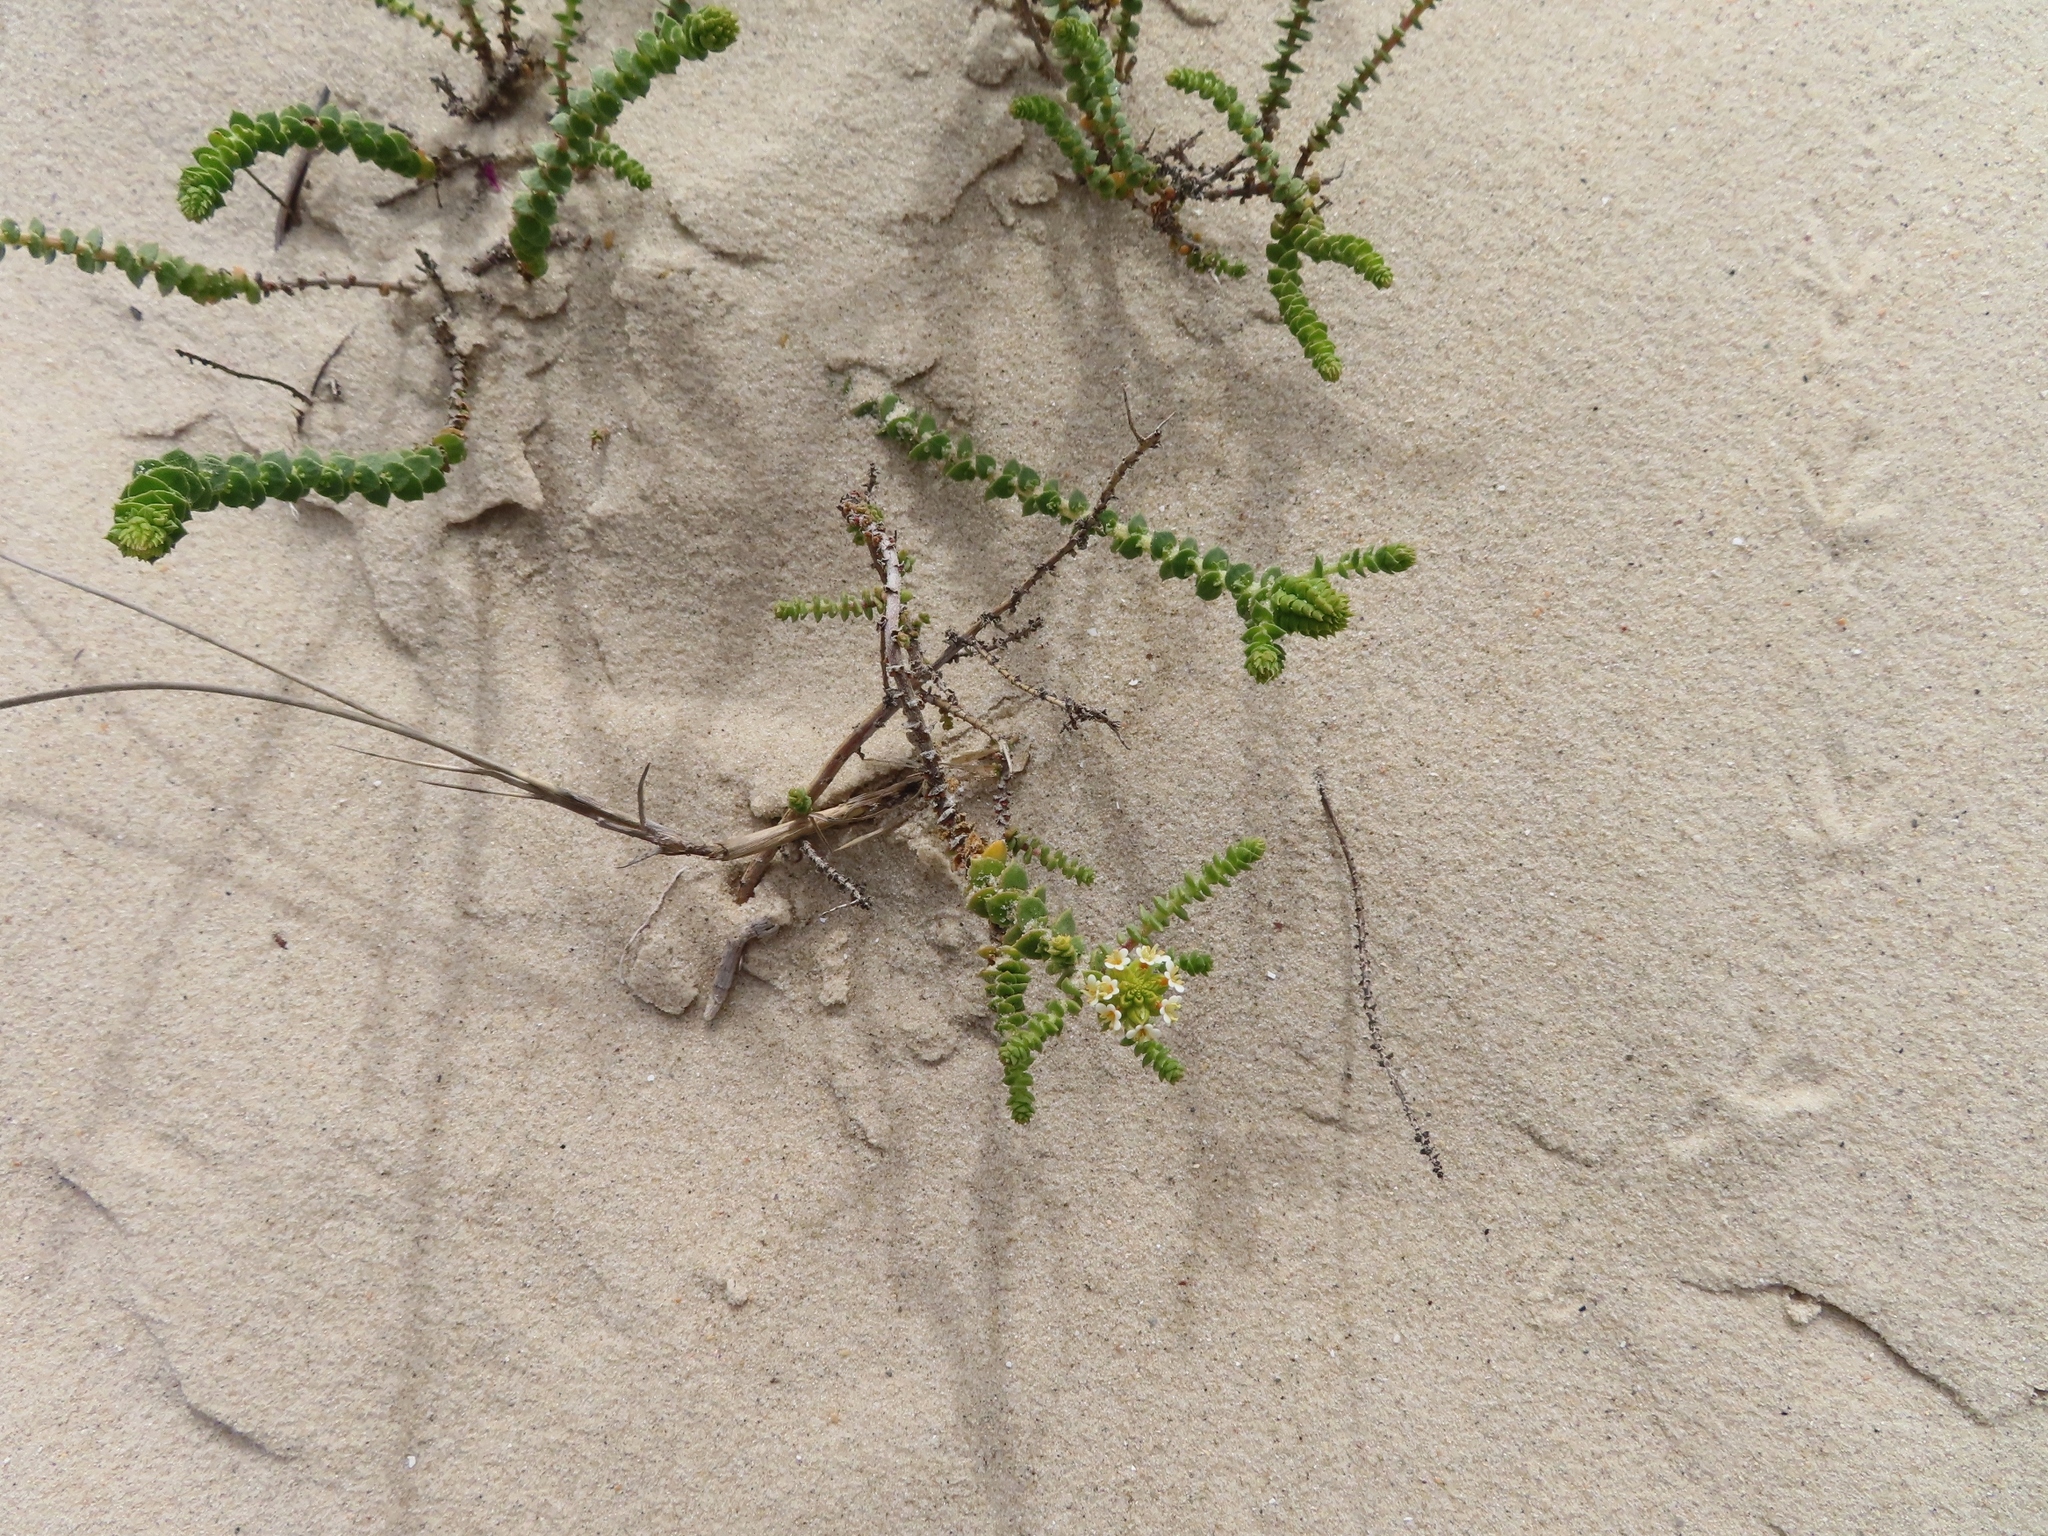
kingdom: Plantae
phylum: Tracheophyta
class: Magnoliopsida
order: Lamiales
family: Scrophulariaceae
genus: Hebenstretia
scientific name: Hebenstretia cordata
